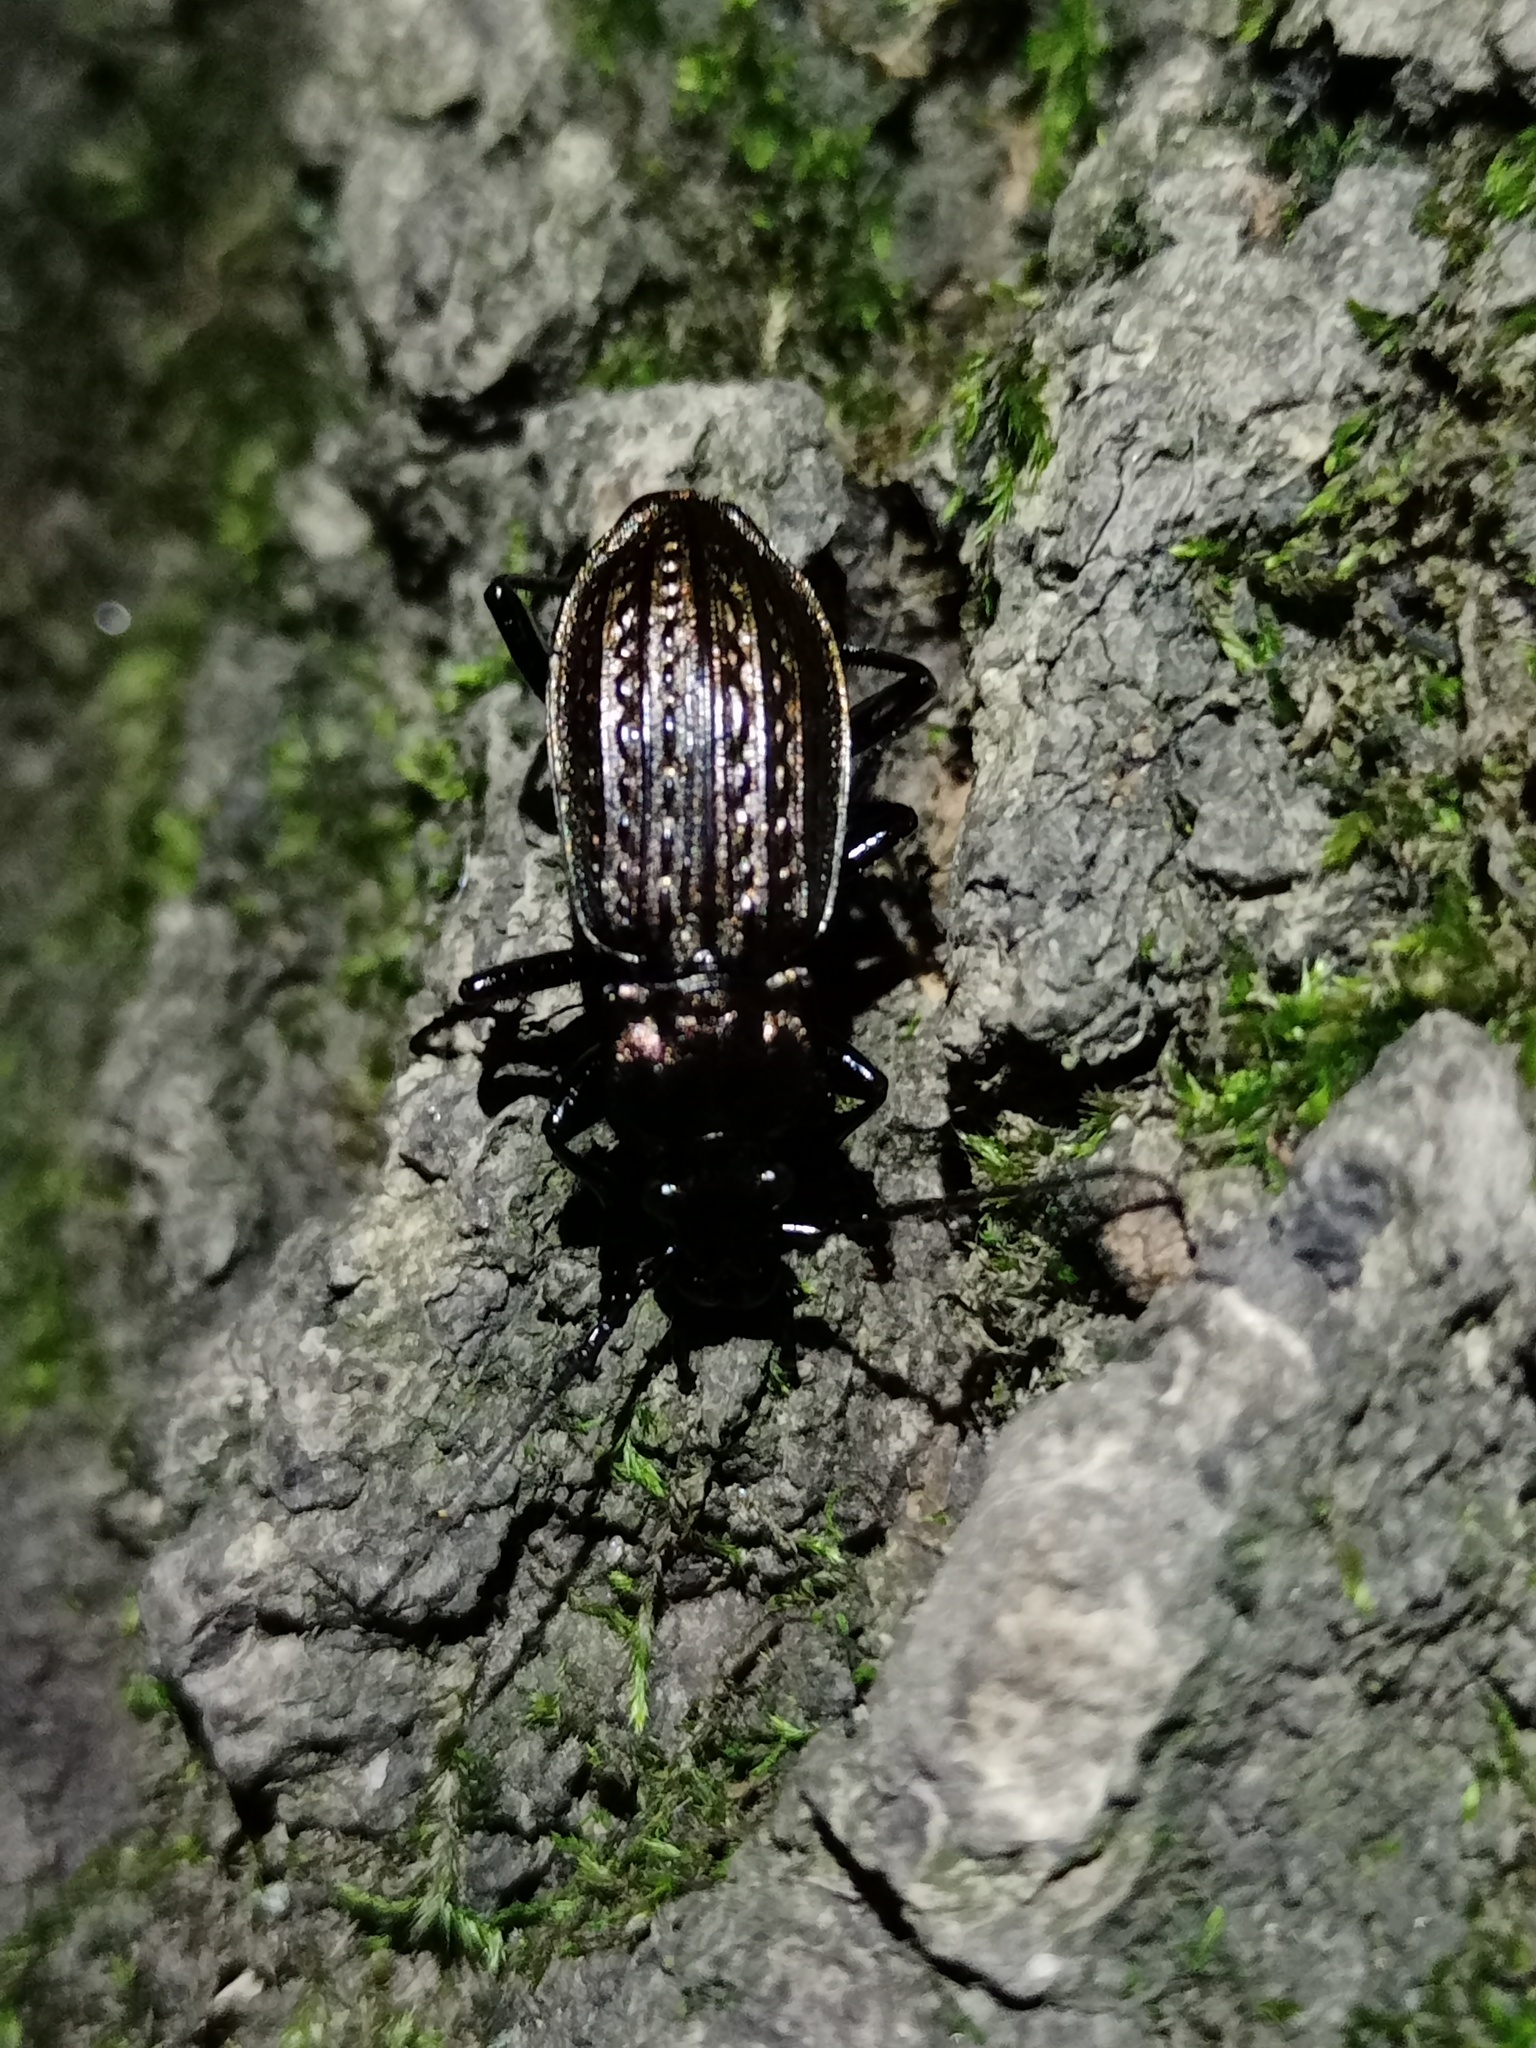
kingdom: Animalia
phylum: Arthropoda
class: Insecta
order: Coleoptera
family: Carabidae
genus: Carabus
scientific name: Carabus granulatus
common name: Granulate ground beetle
